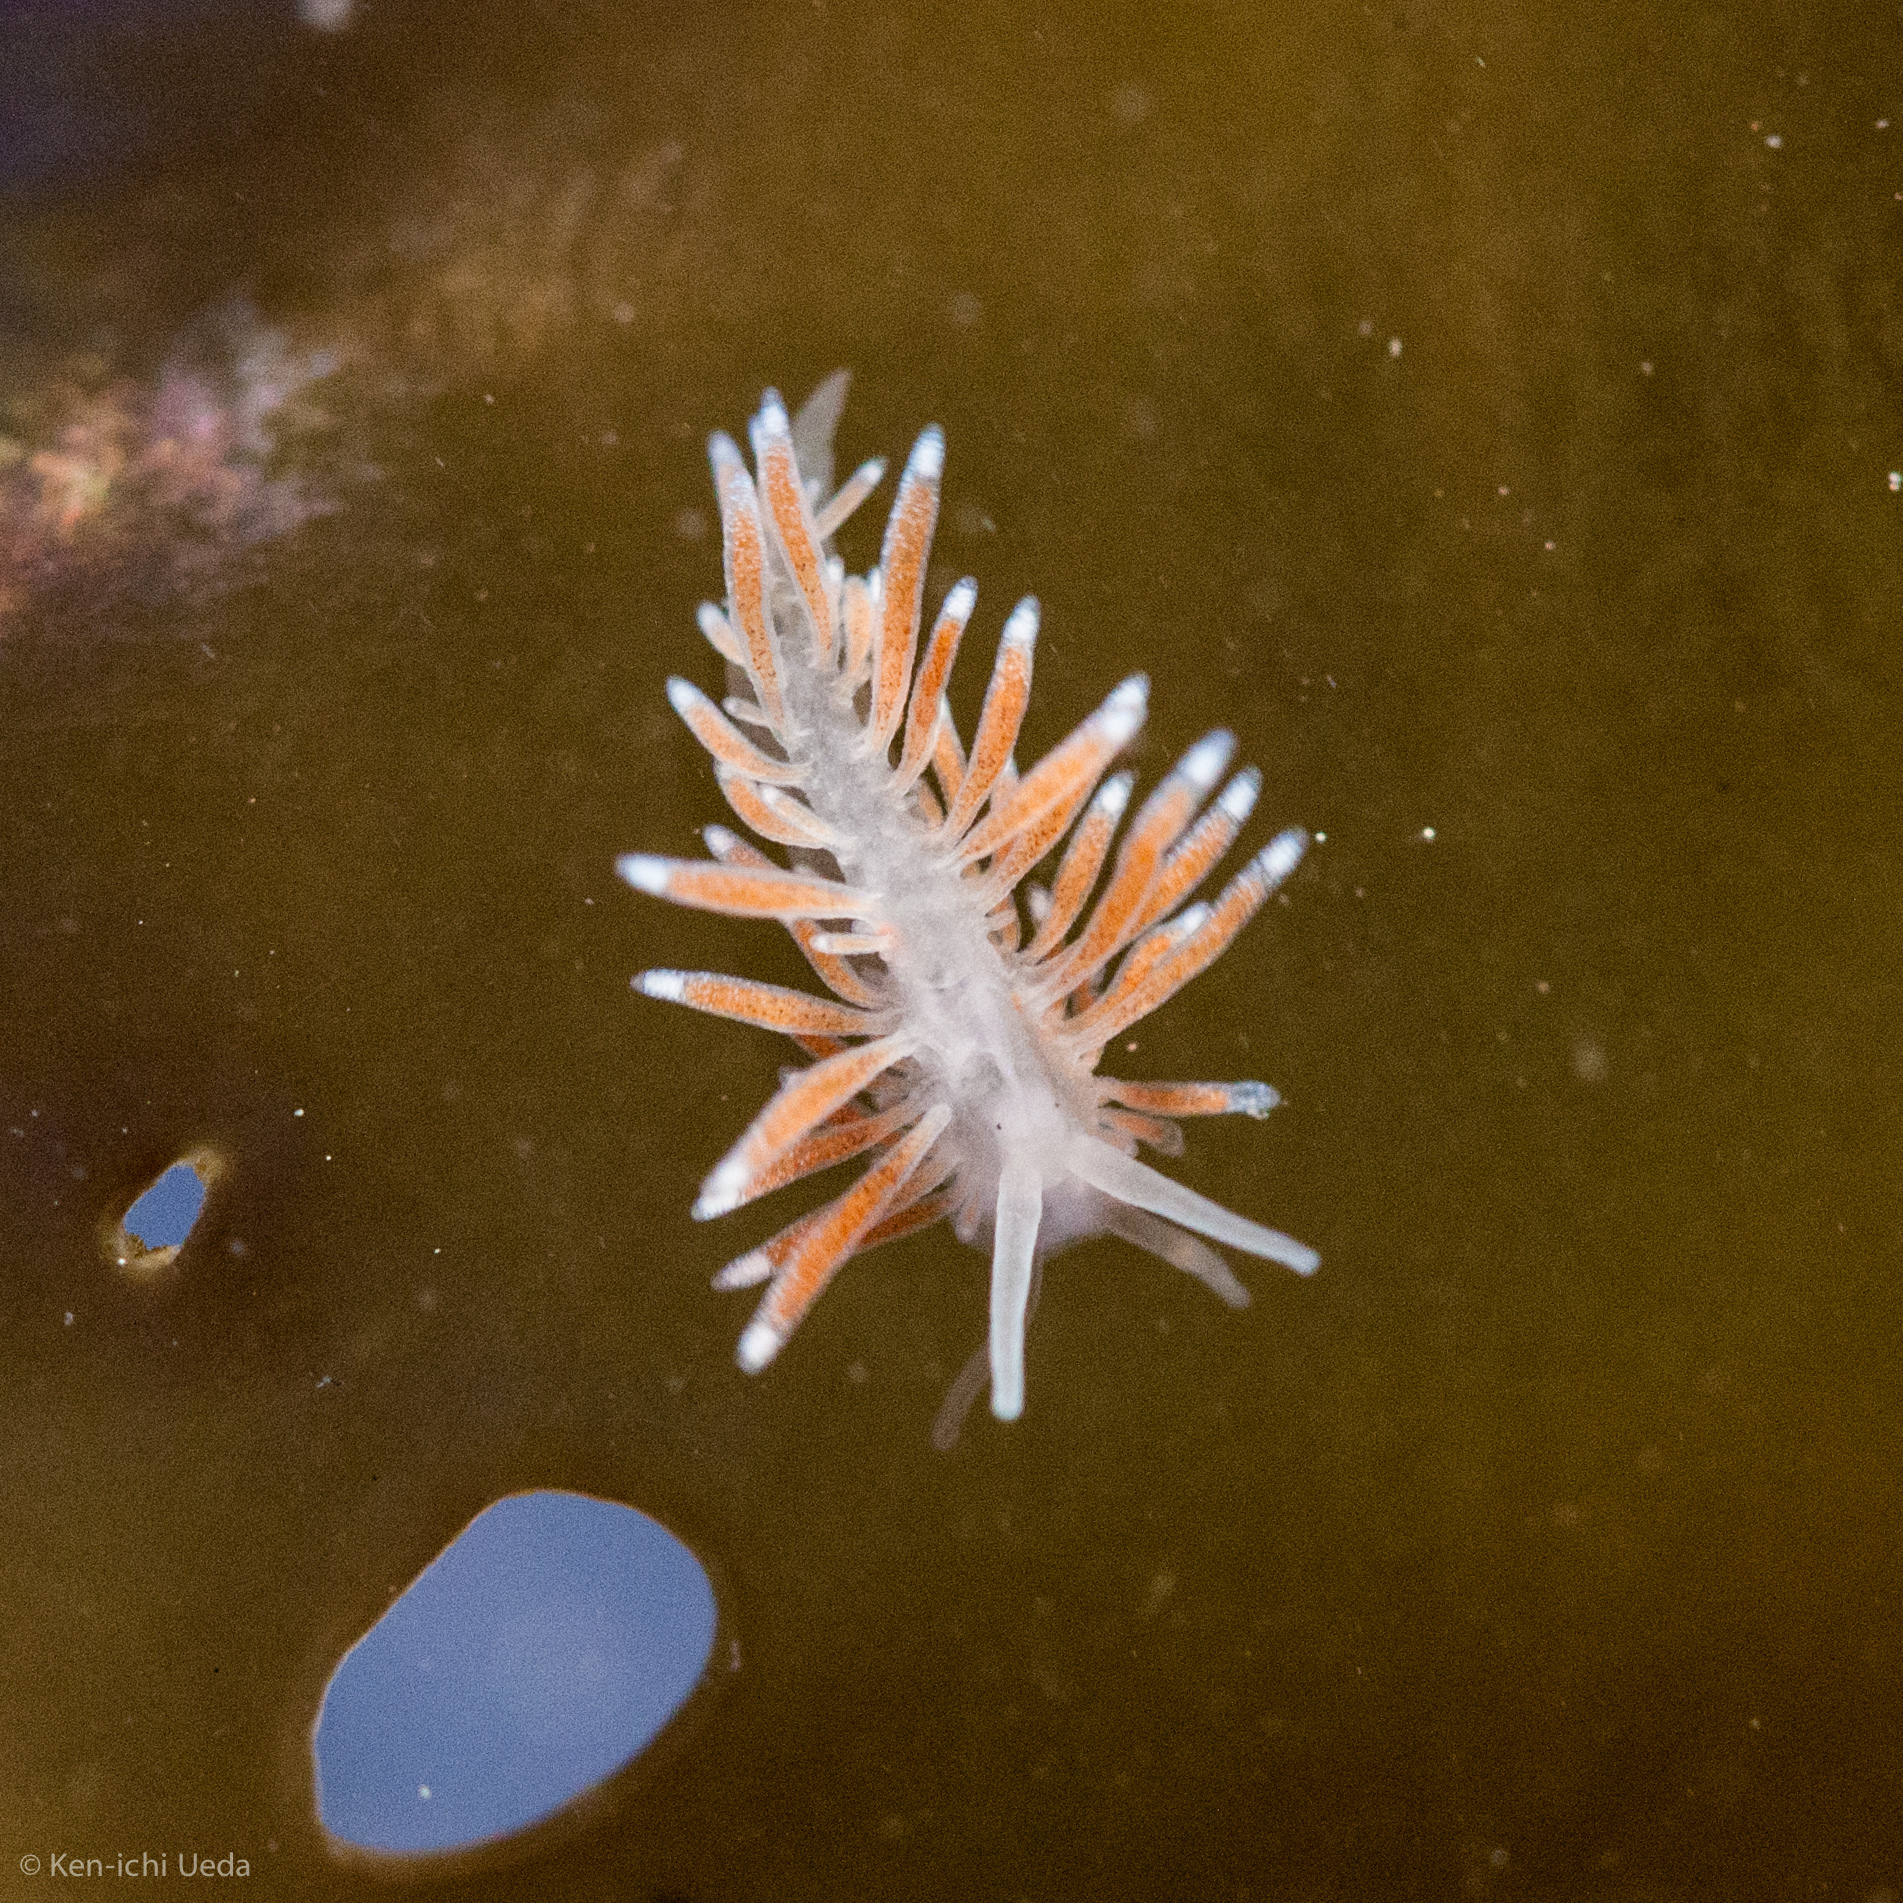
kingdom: Animalia
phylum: Mollusca
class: Gastropoda
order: Nudibranchia
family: Cuthonidae
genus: Cuthona
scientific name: Cuthona divae
